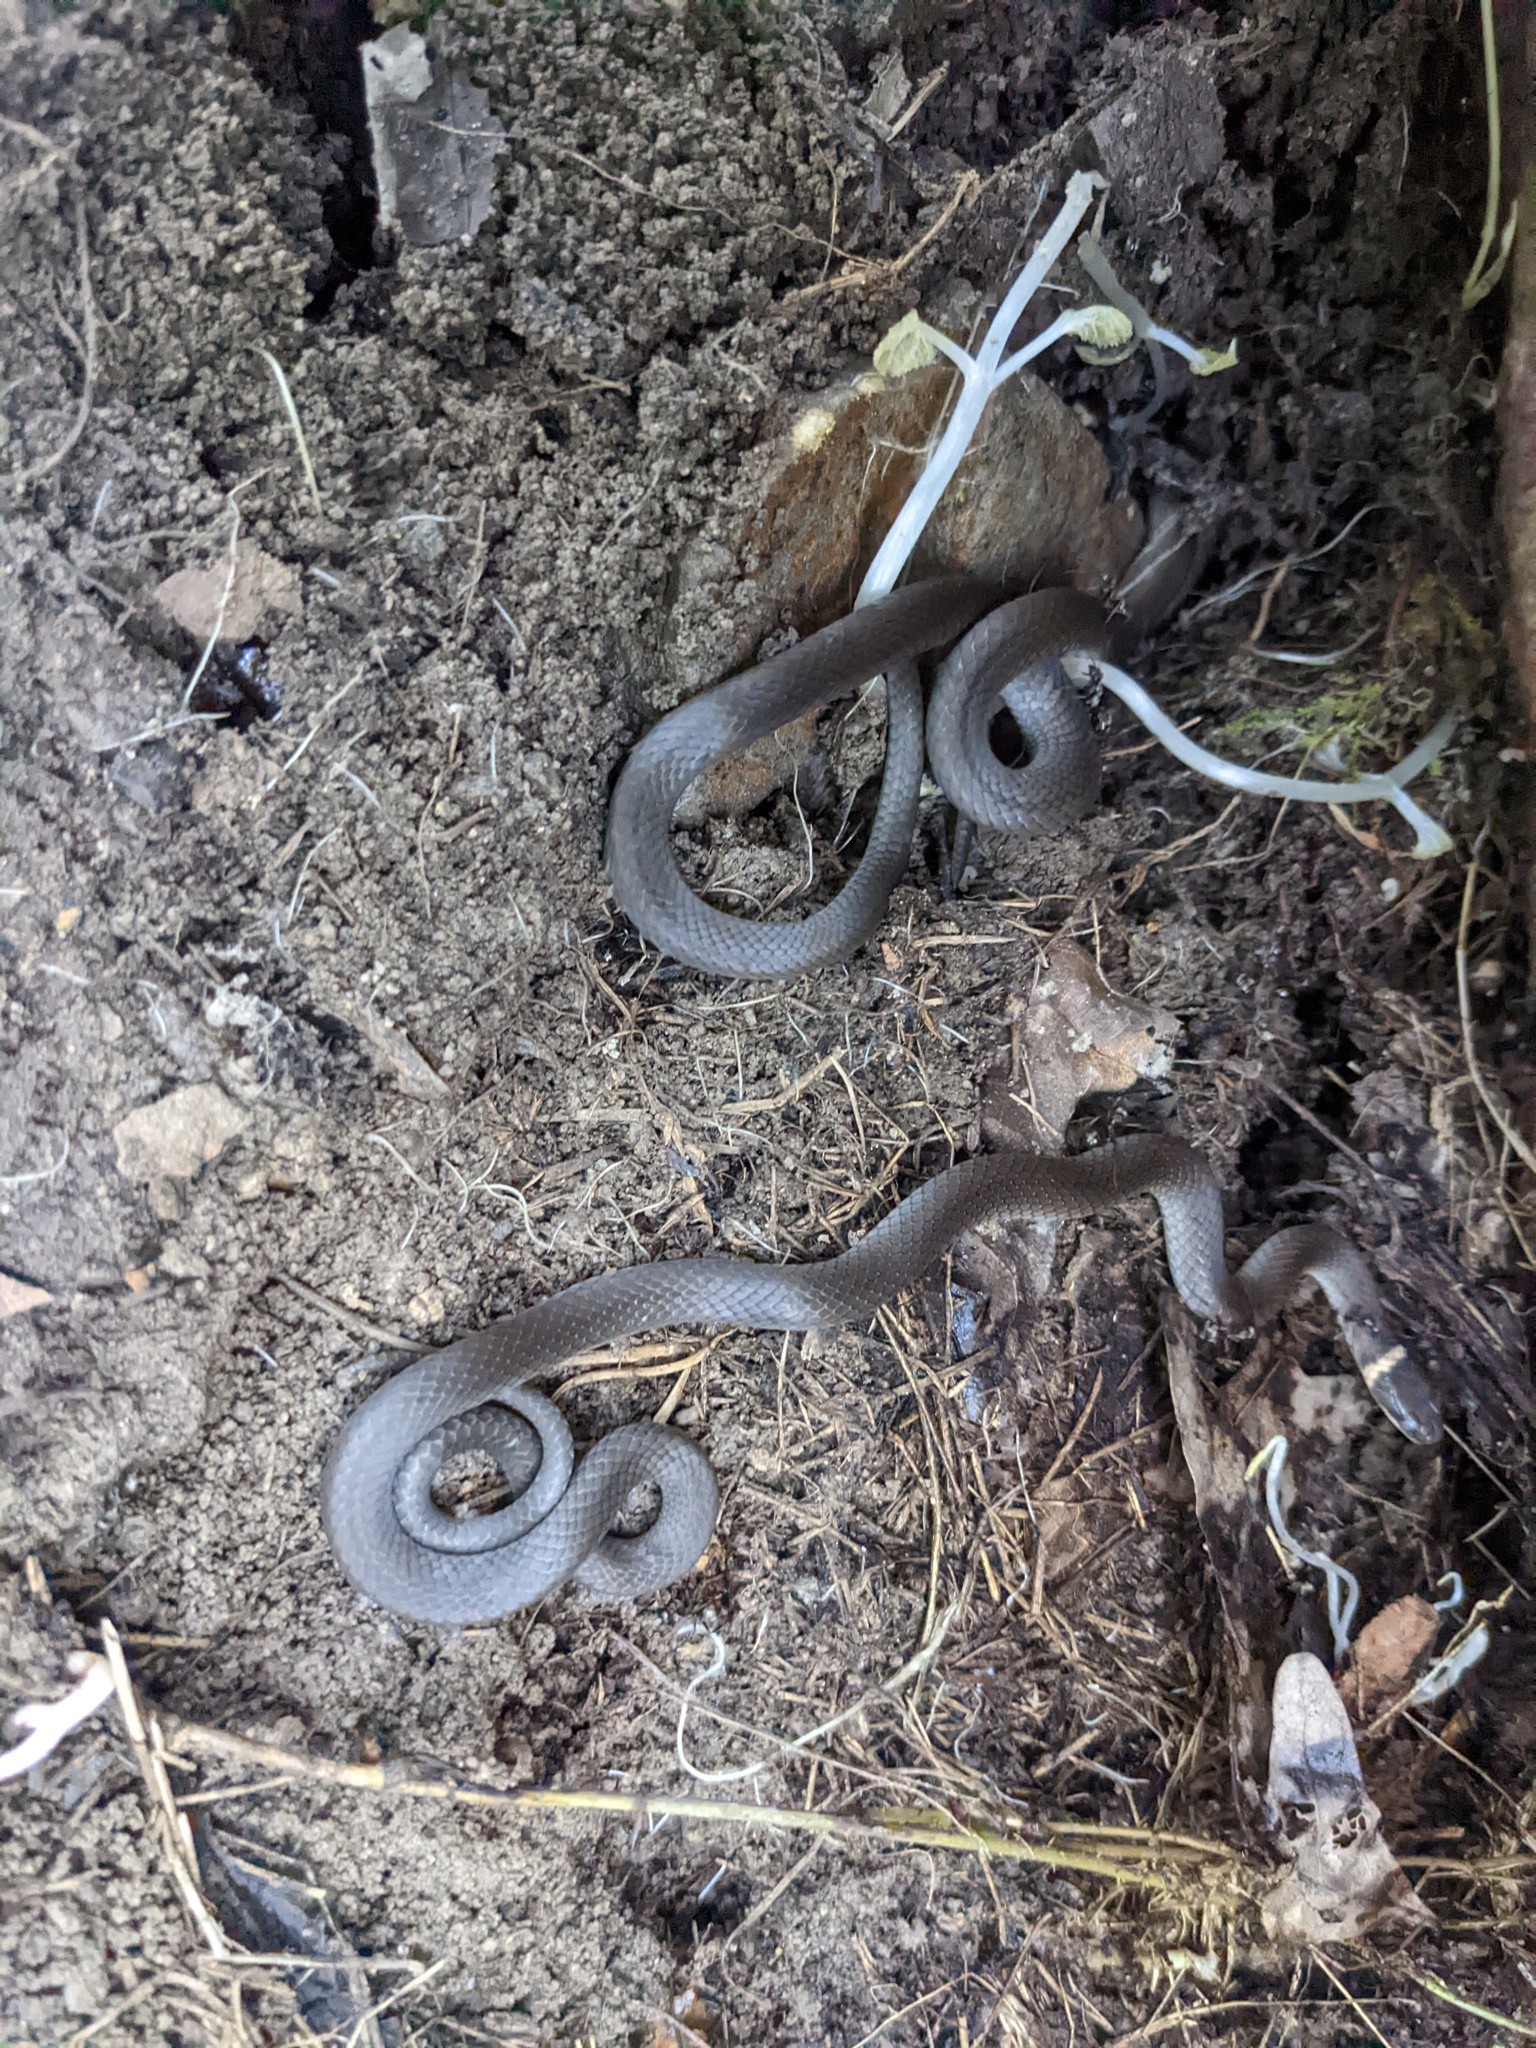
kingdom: Animalia
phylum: Chordata
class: Squamata
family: Colubridae
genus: Diadophis
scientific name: Diadophis punctatus
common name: Ringneck snake
